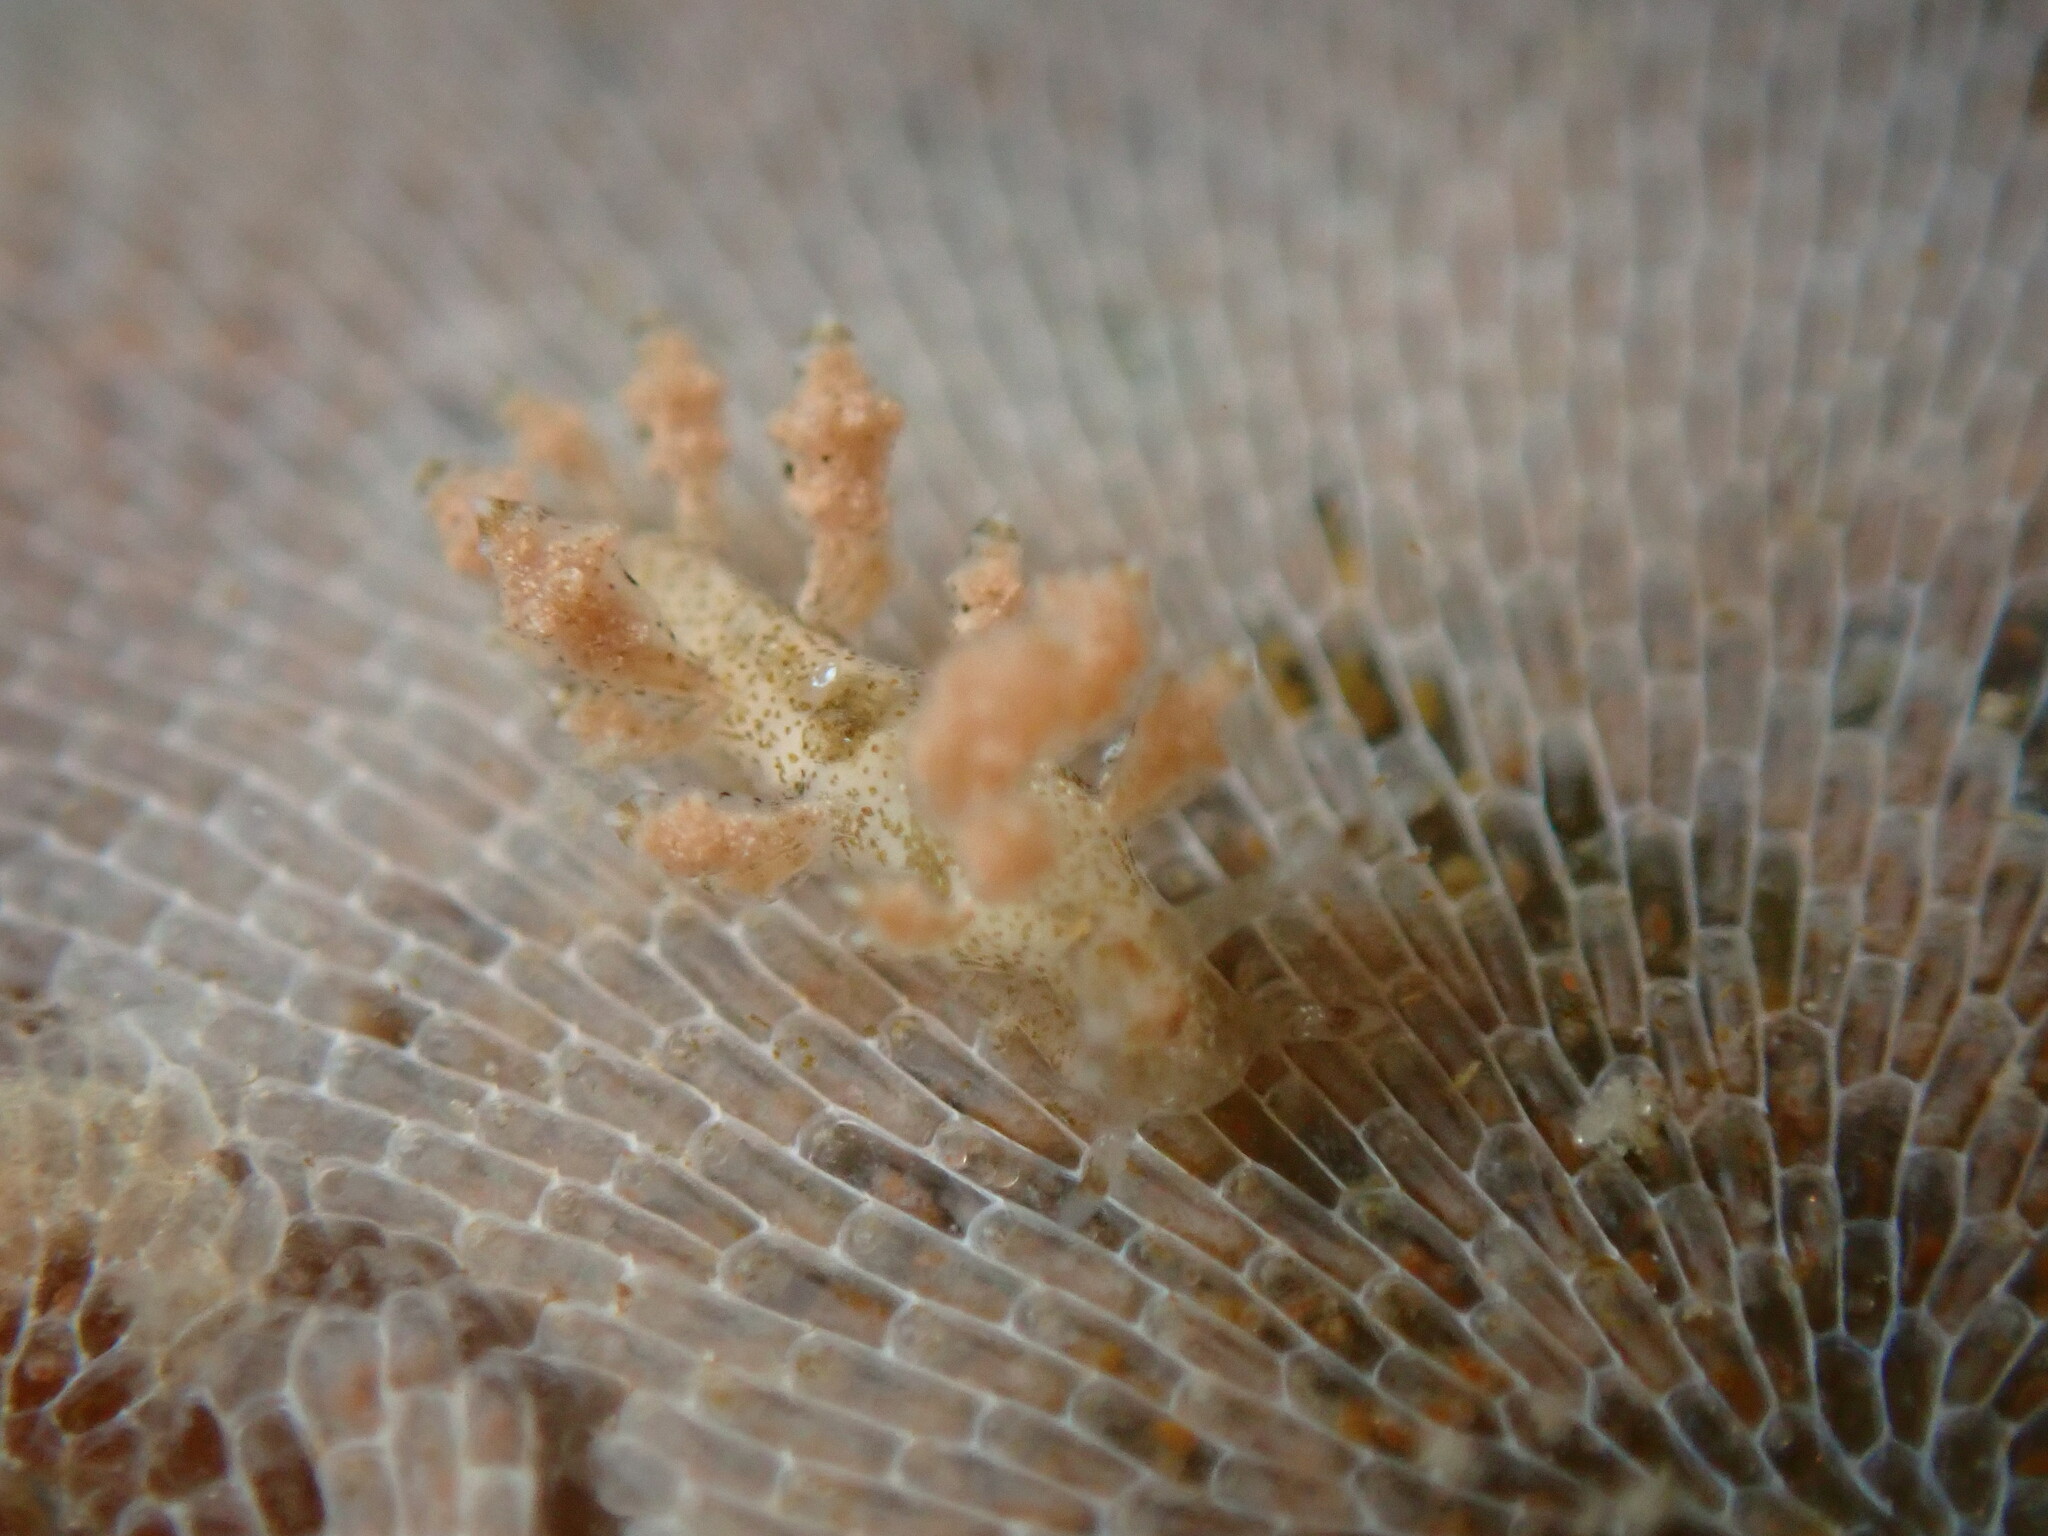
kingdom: Animalia
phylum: Mollusca
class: Gastropoda
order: Nudibranchia
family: Eubranchidae
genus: Eubranchus
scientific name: Eubranchus rustyus
